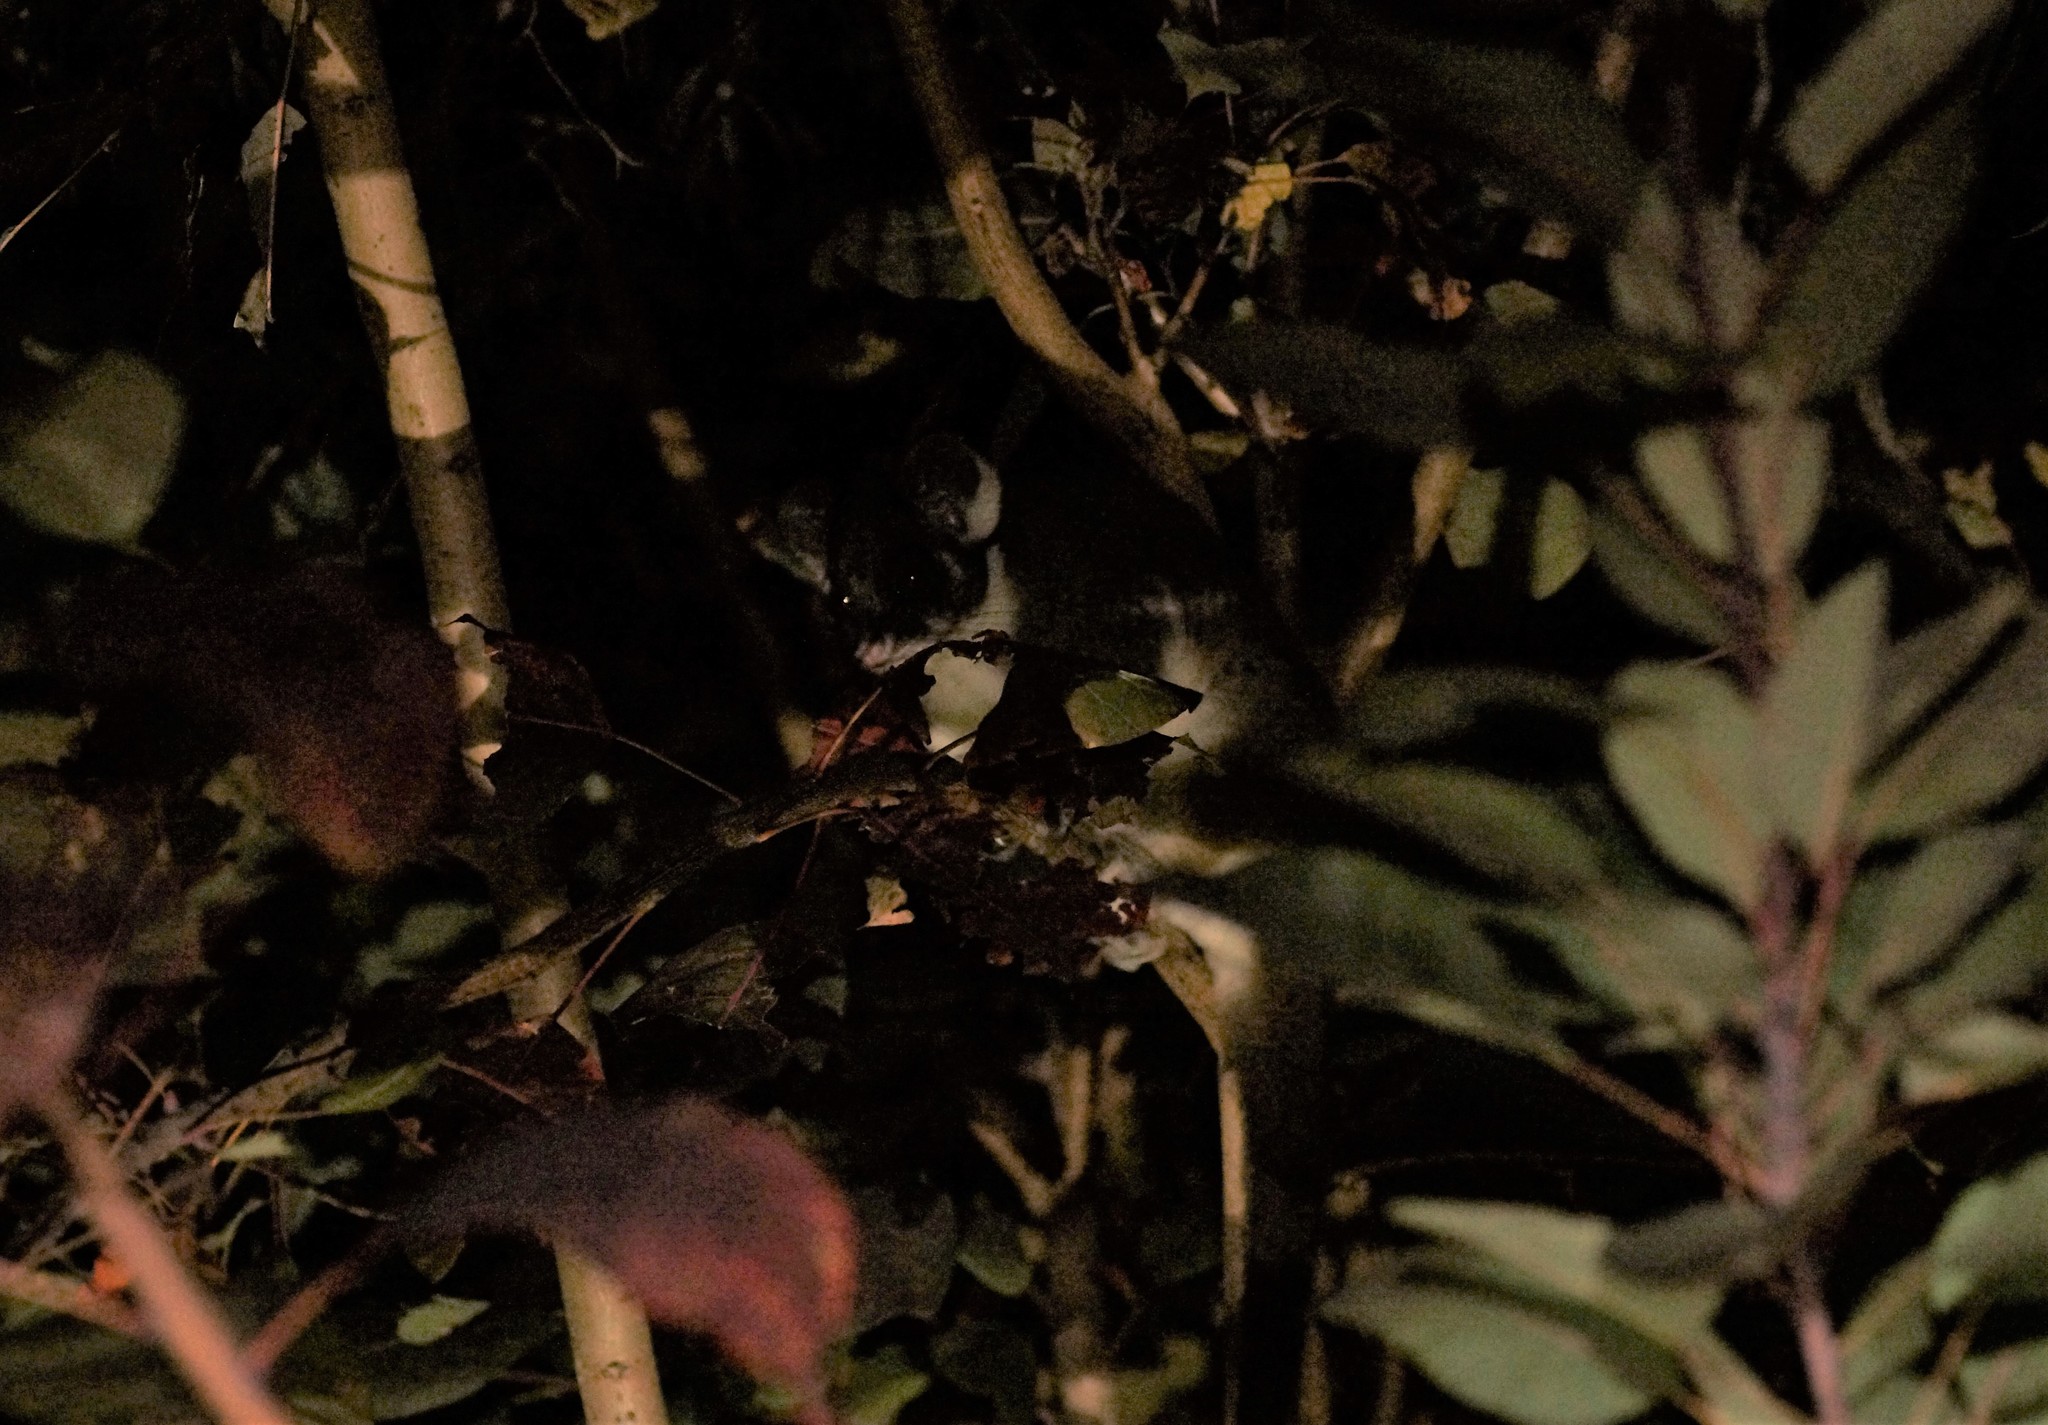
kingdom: Animalia
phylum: Chordata
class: Mammalia
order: Diprotodontia
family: Pseudocheiridae
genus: Pseudocheirus
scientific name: Pseudocheirus peregrinus
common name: Common ringtail possum
